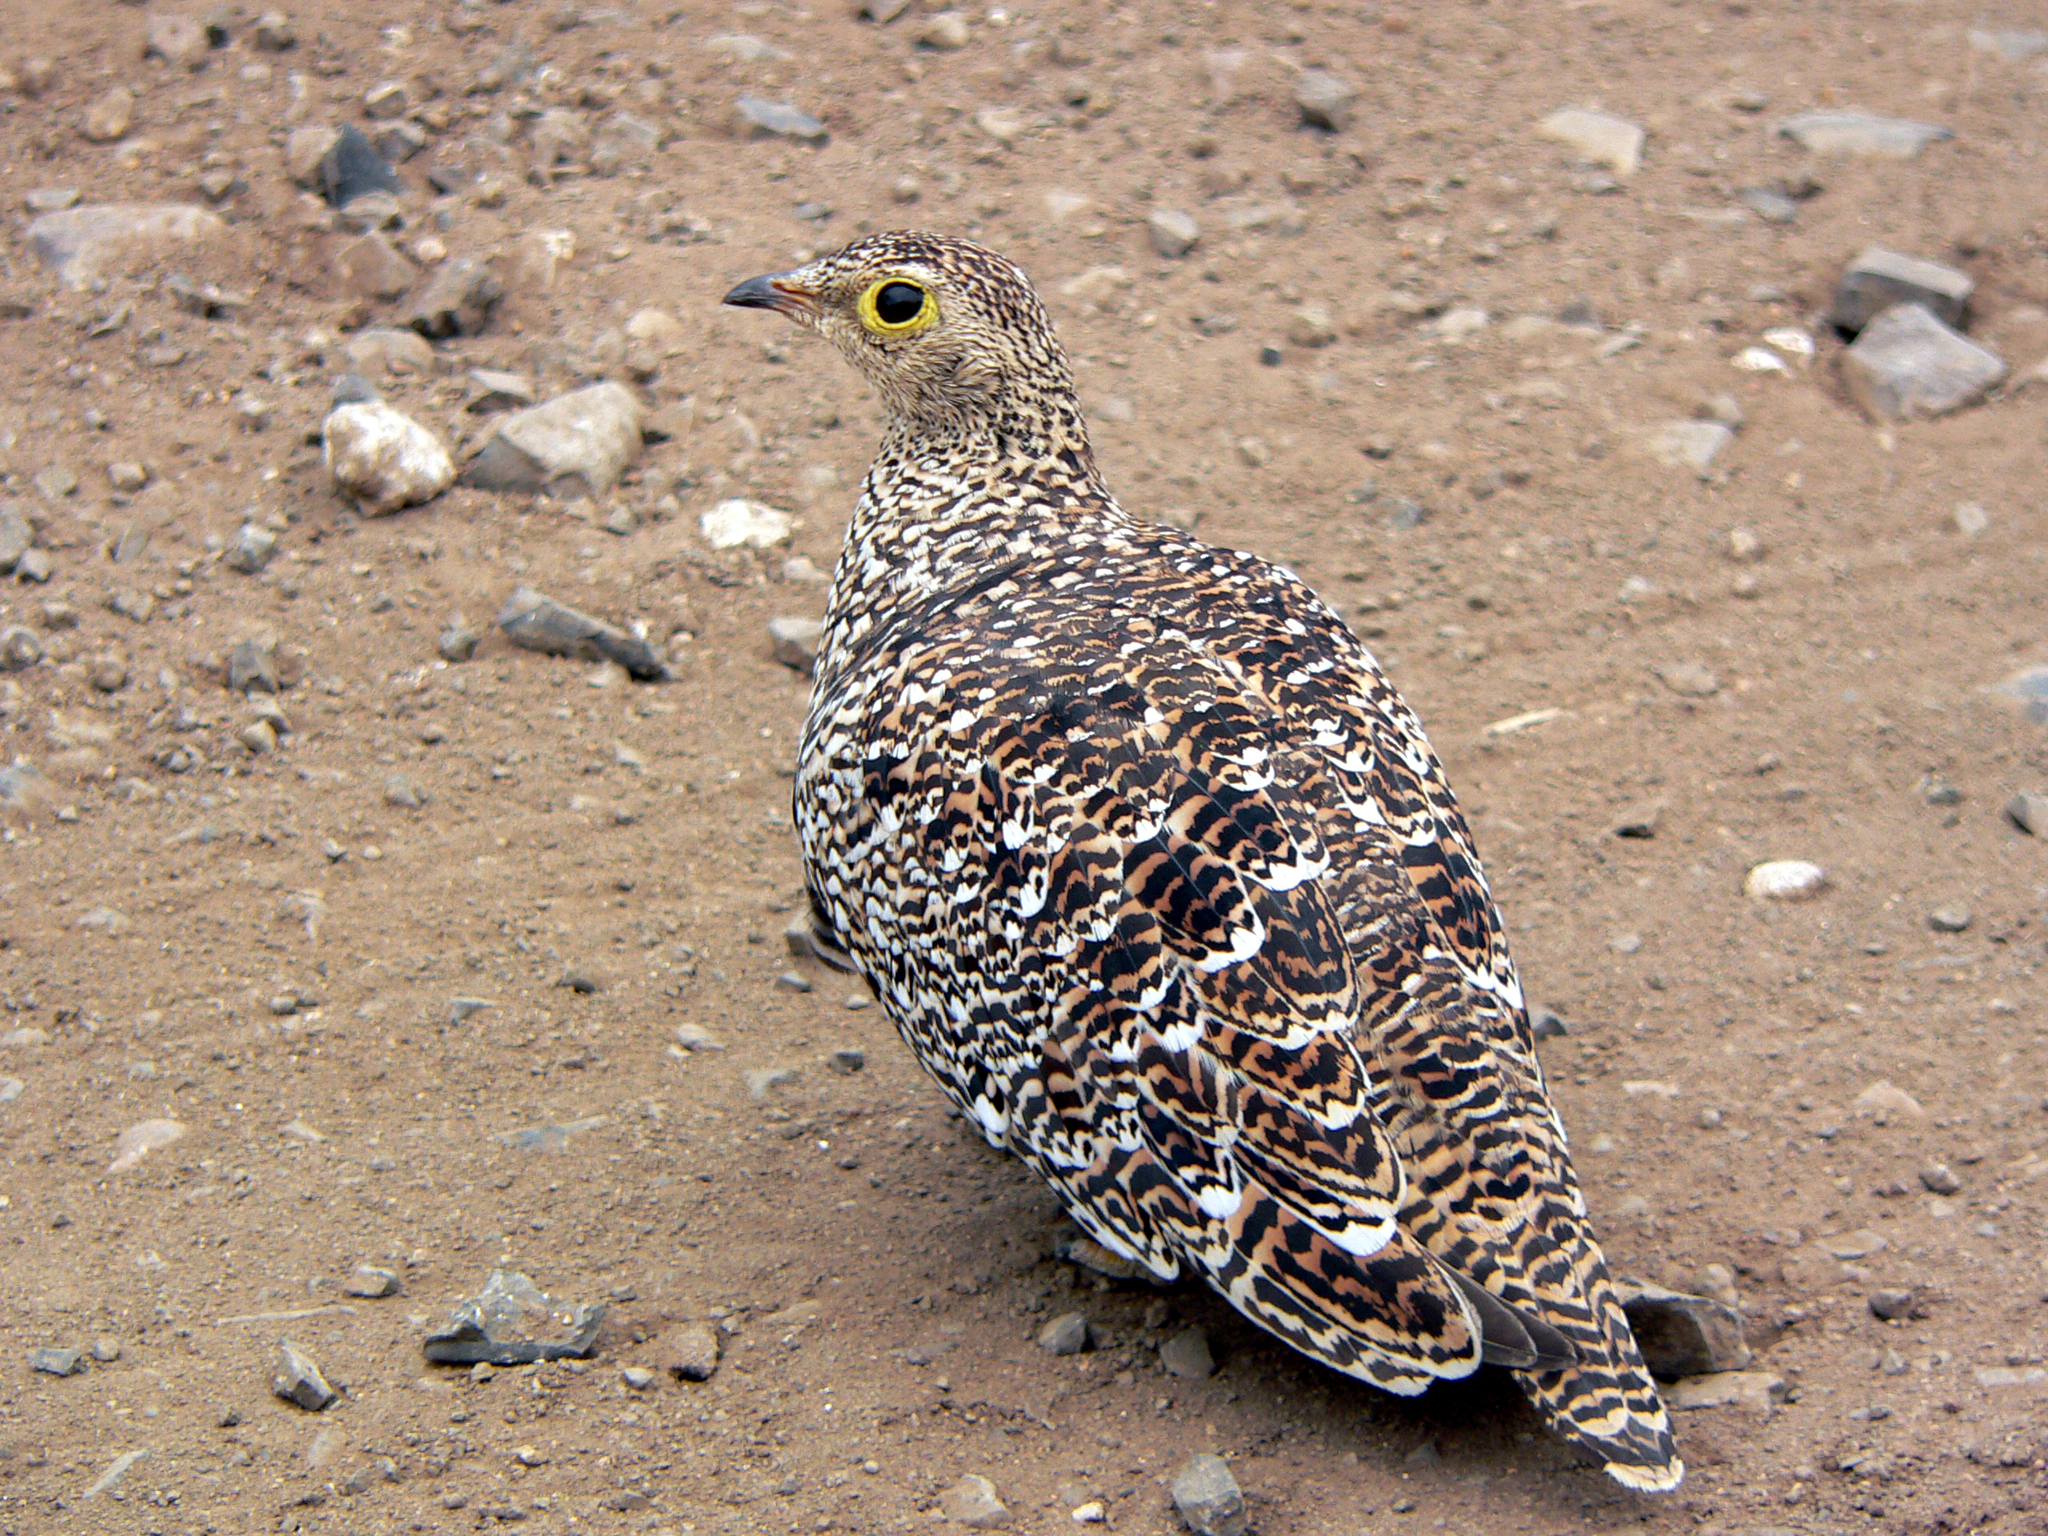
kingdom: Animalia
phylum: Chordata
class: Aves
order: Pteroclidiformes
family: Pteroclididae
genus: Pterocles
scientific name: Pterocles bicinctus
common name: Double-banded sandgrouse
